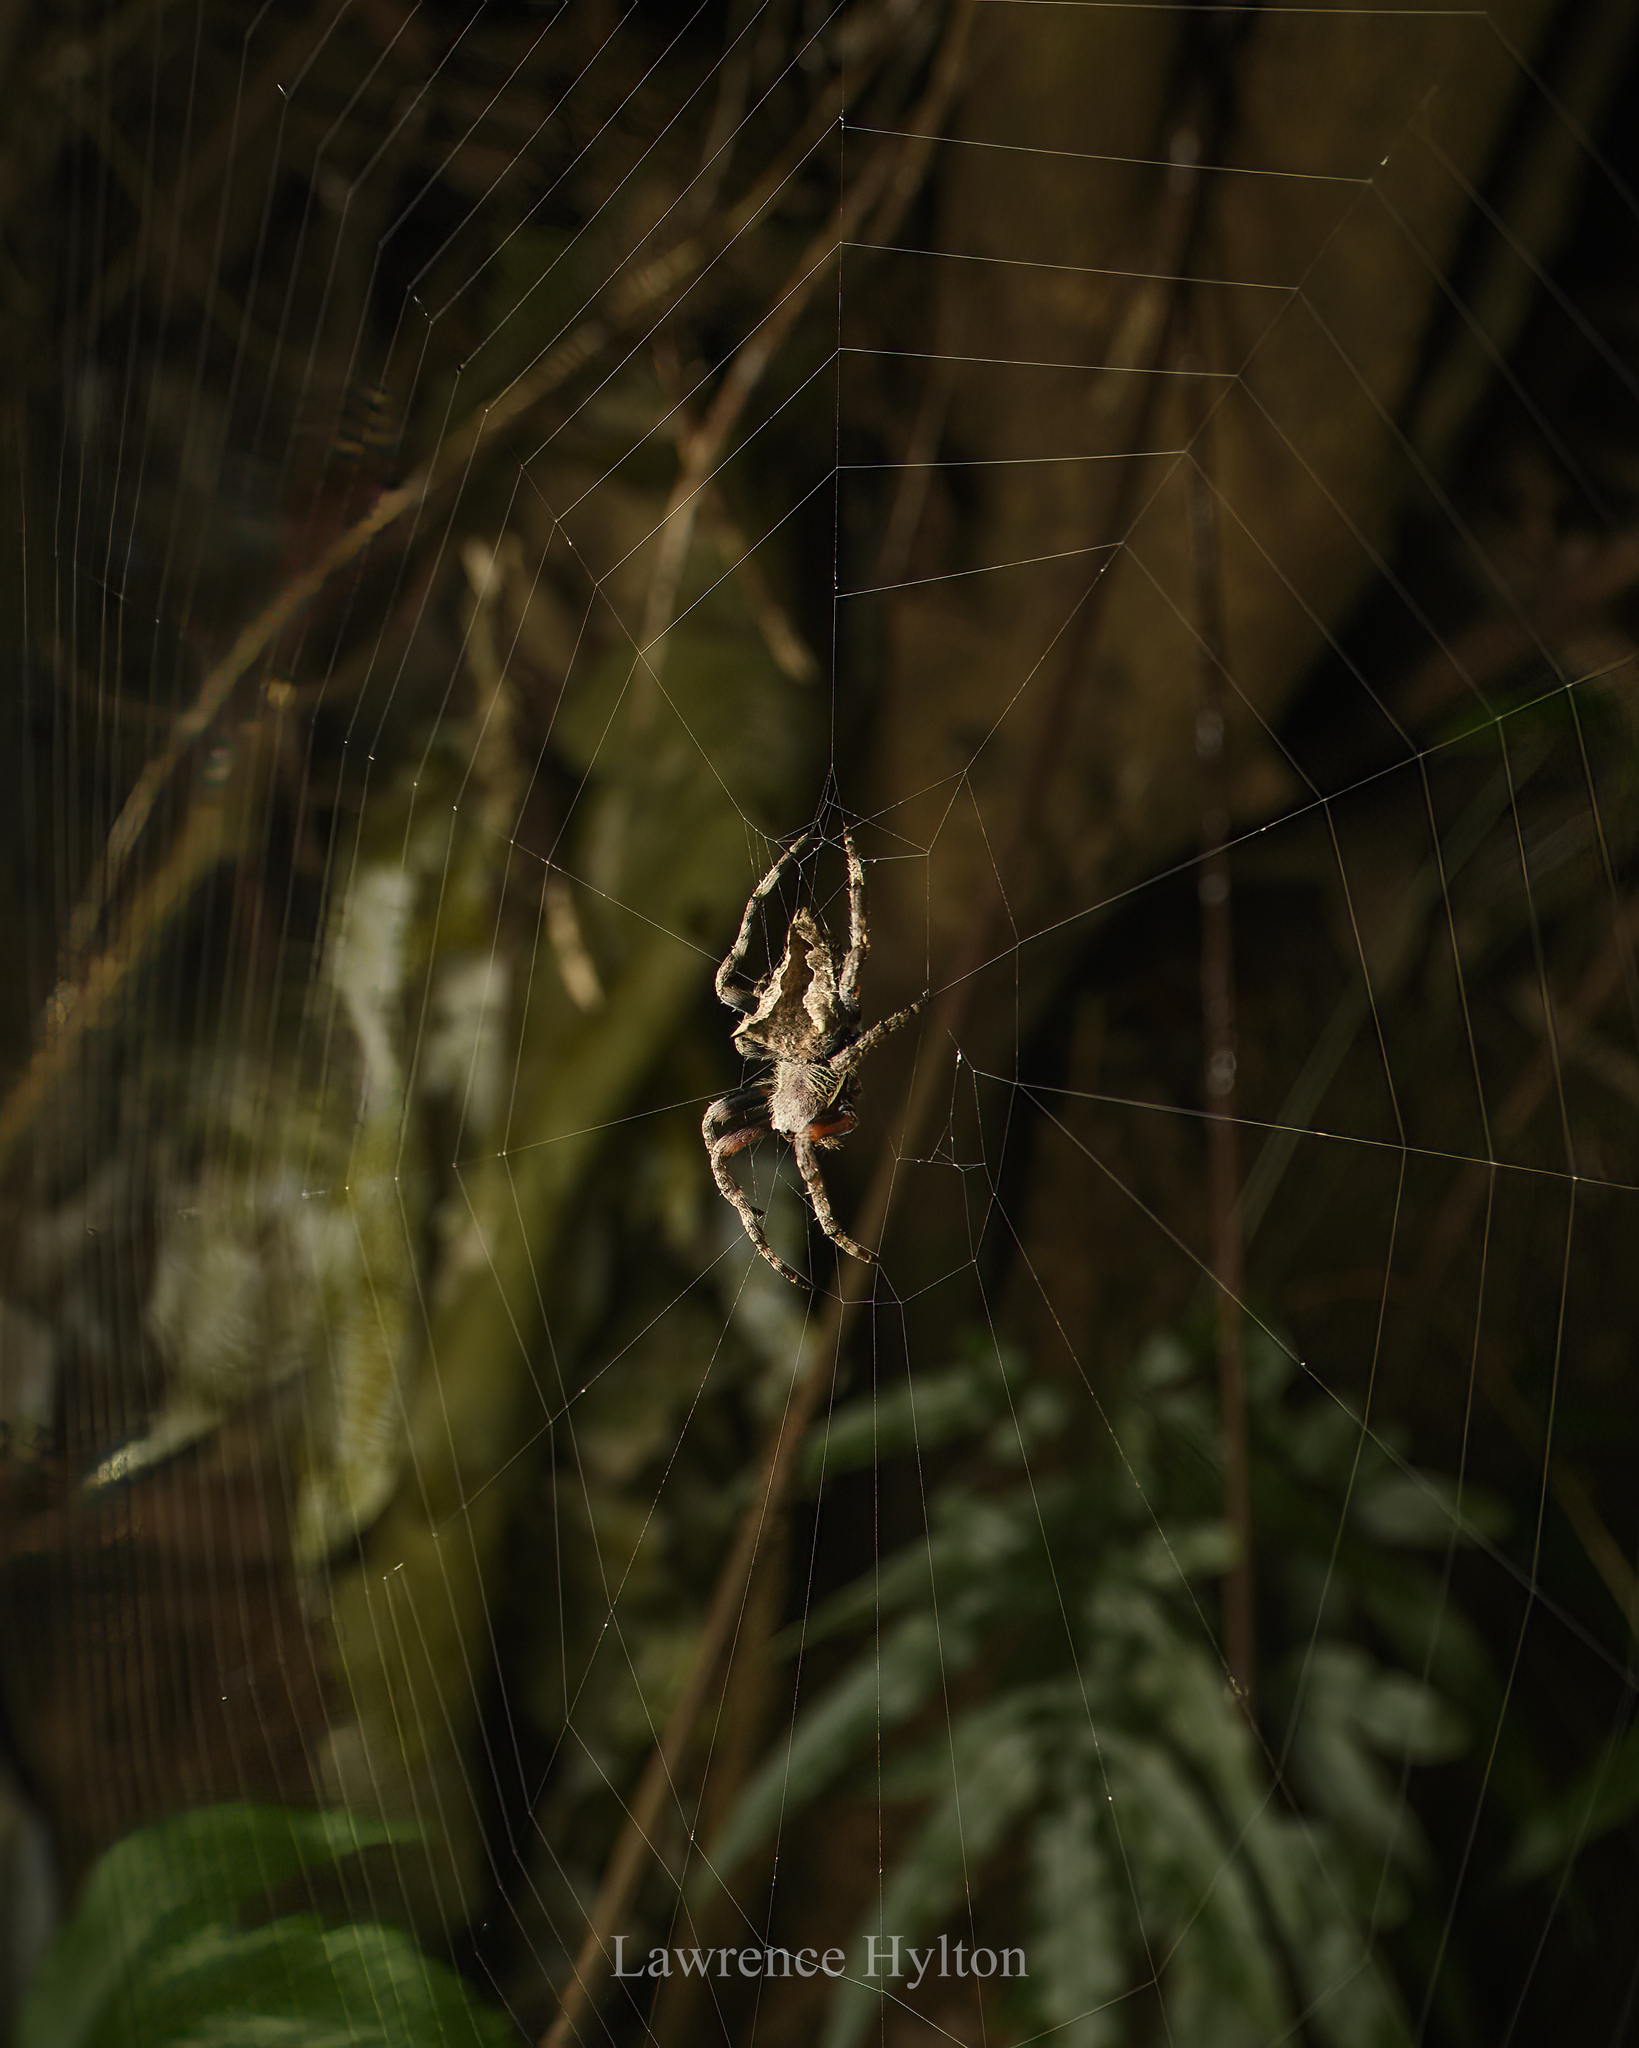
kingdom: Animalia
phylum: Arthropoda
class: Arachnida
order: Araneae
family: Araneidae
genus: Parawixia
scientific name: Parawixia dehaani
